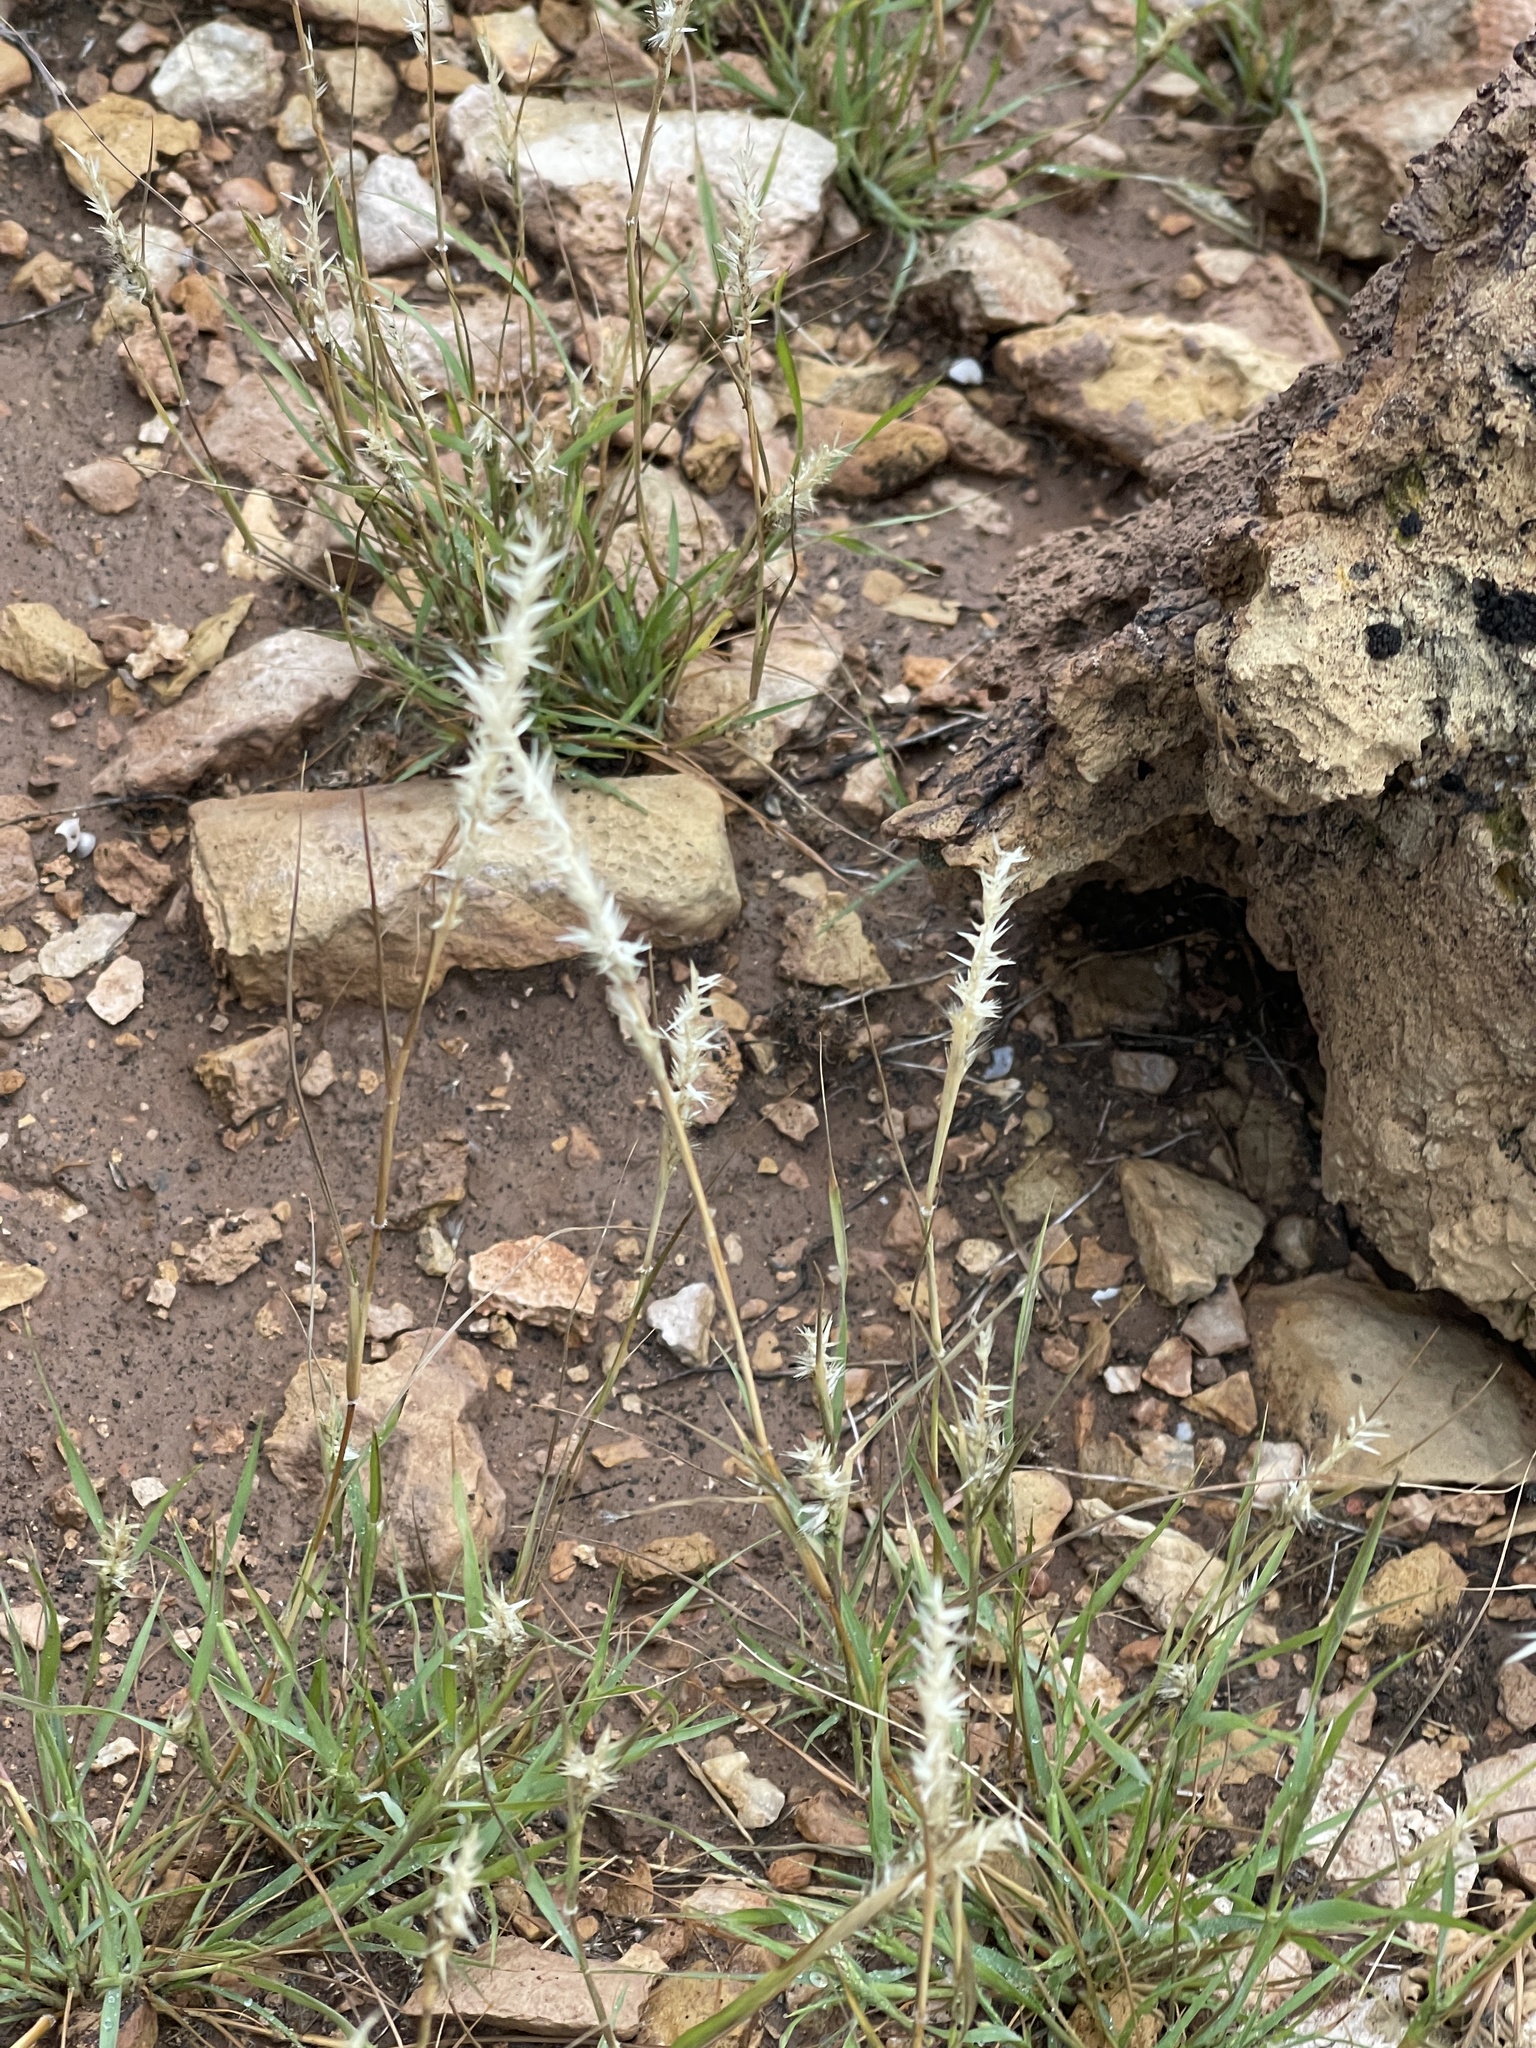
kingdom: Plantae
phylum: Tracheophyta
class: Liliopsida
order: Poales
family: Poaceae
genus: Hilaria
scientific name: Hilaria jamesii
